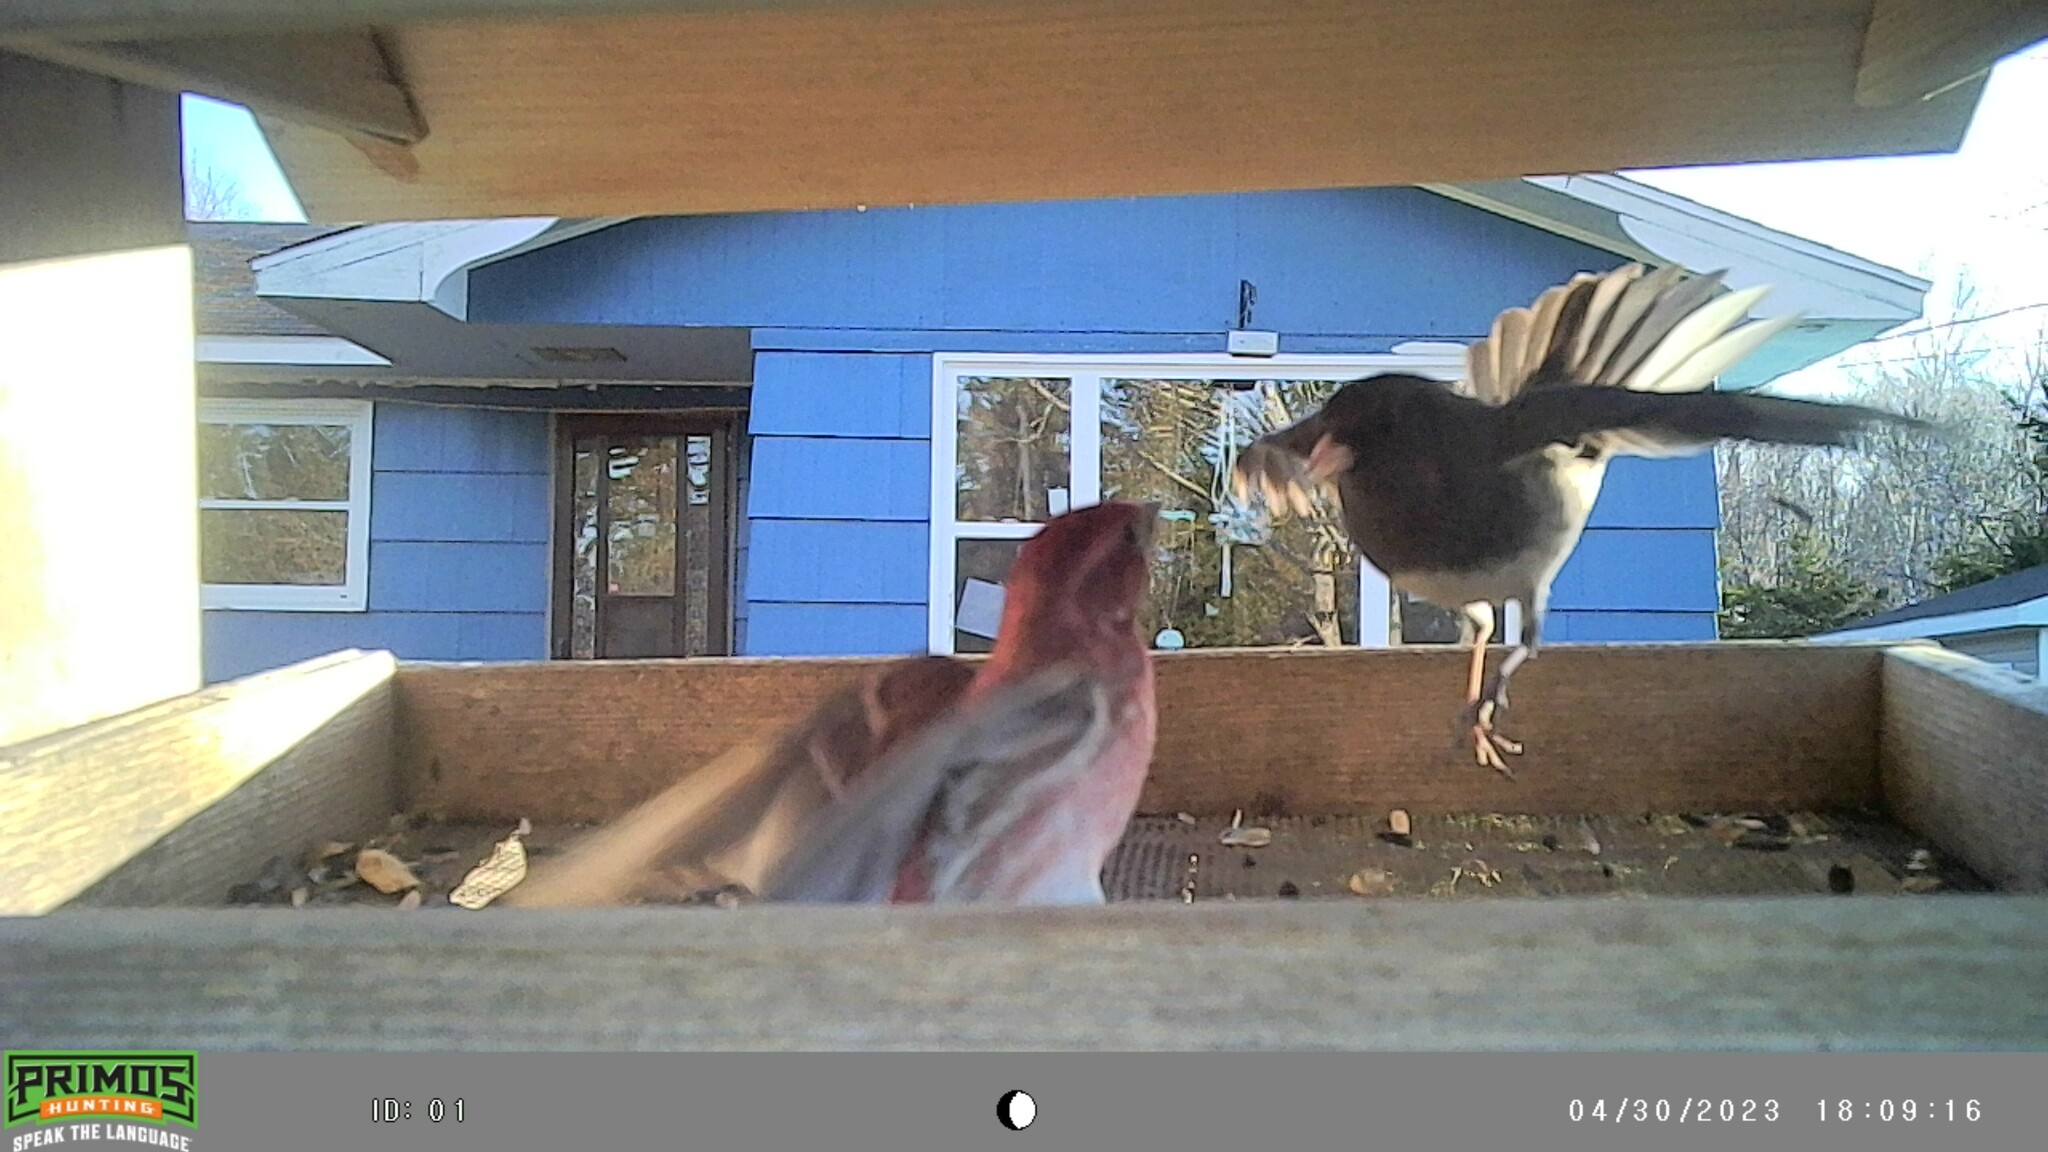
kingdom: Animalia
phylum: Chordata
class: Aves
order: Passeriformes
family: Fringillidae
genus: Haemorhous
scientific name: Haemorhous purpureus
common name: Purple finch
